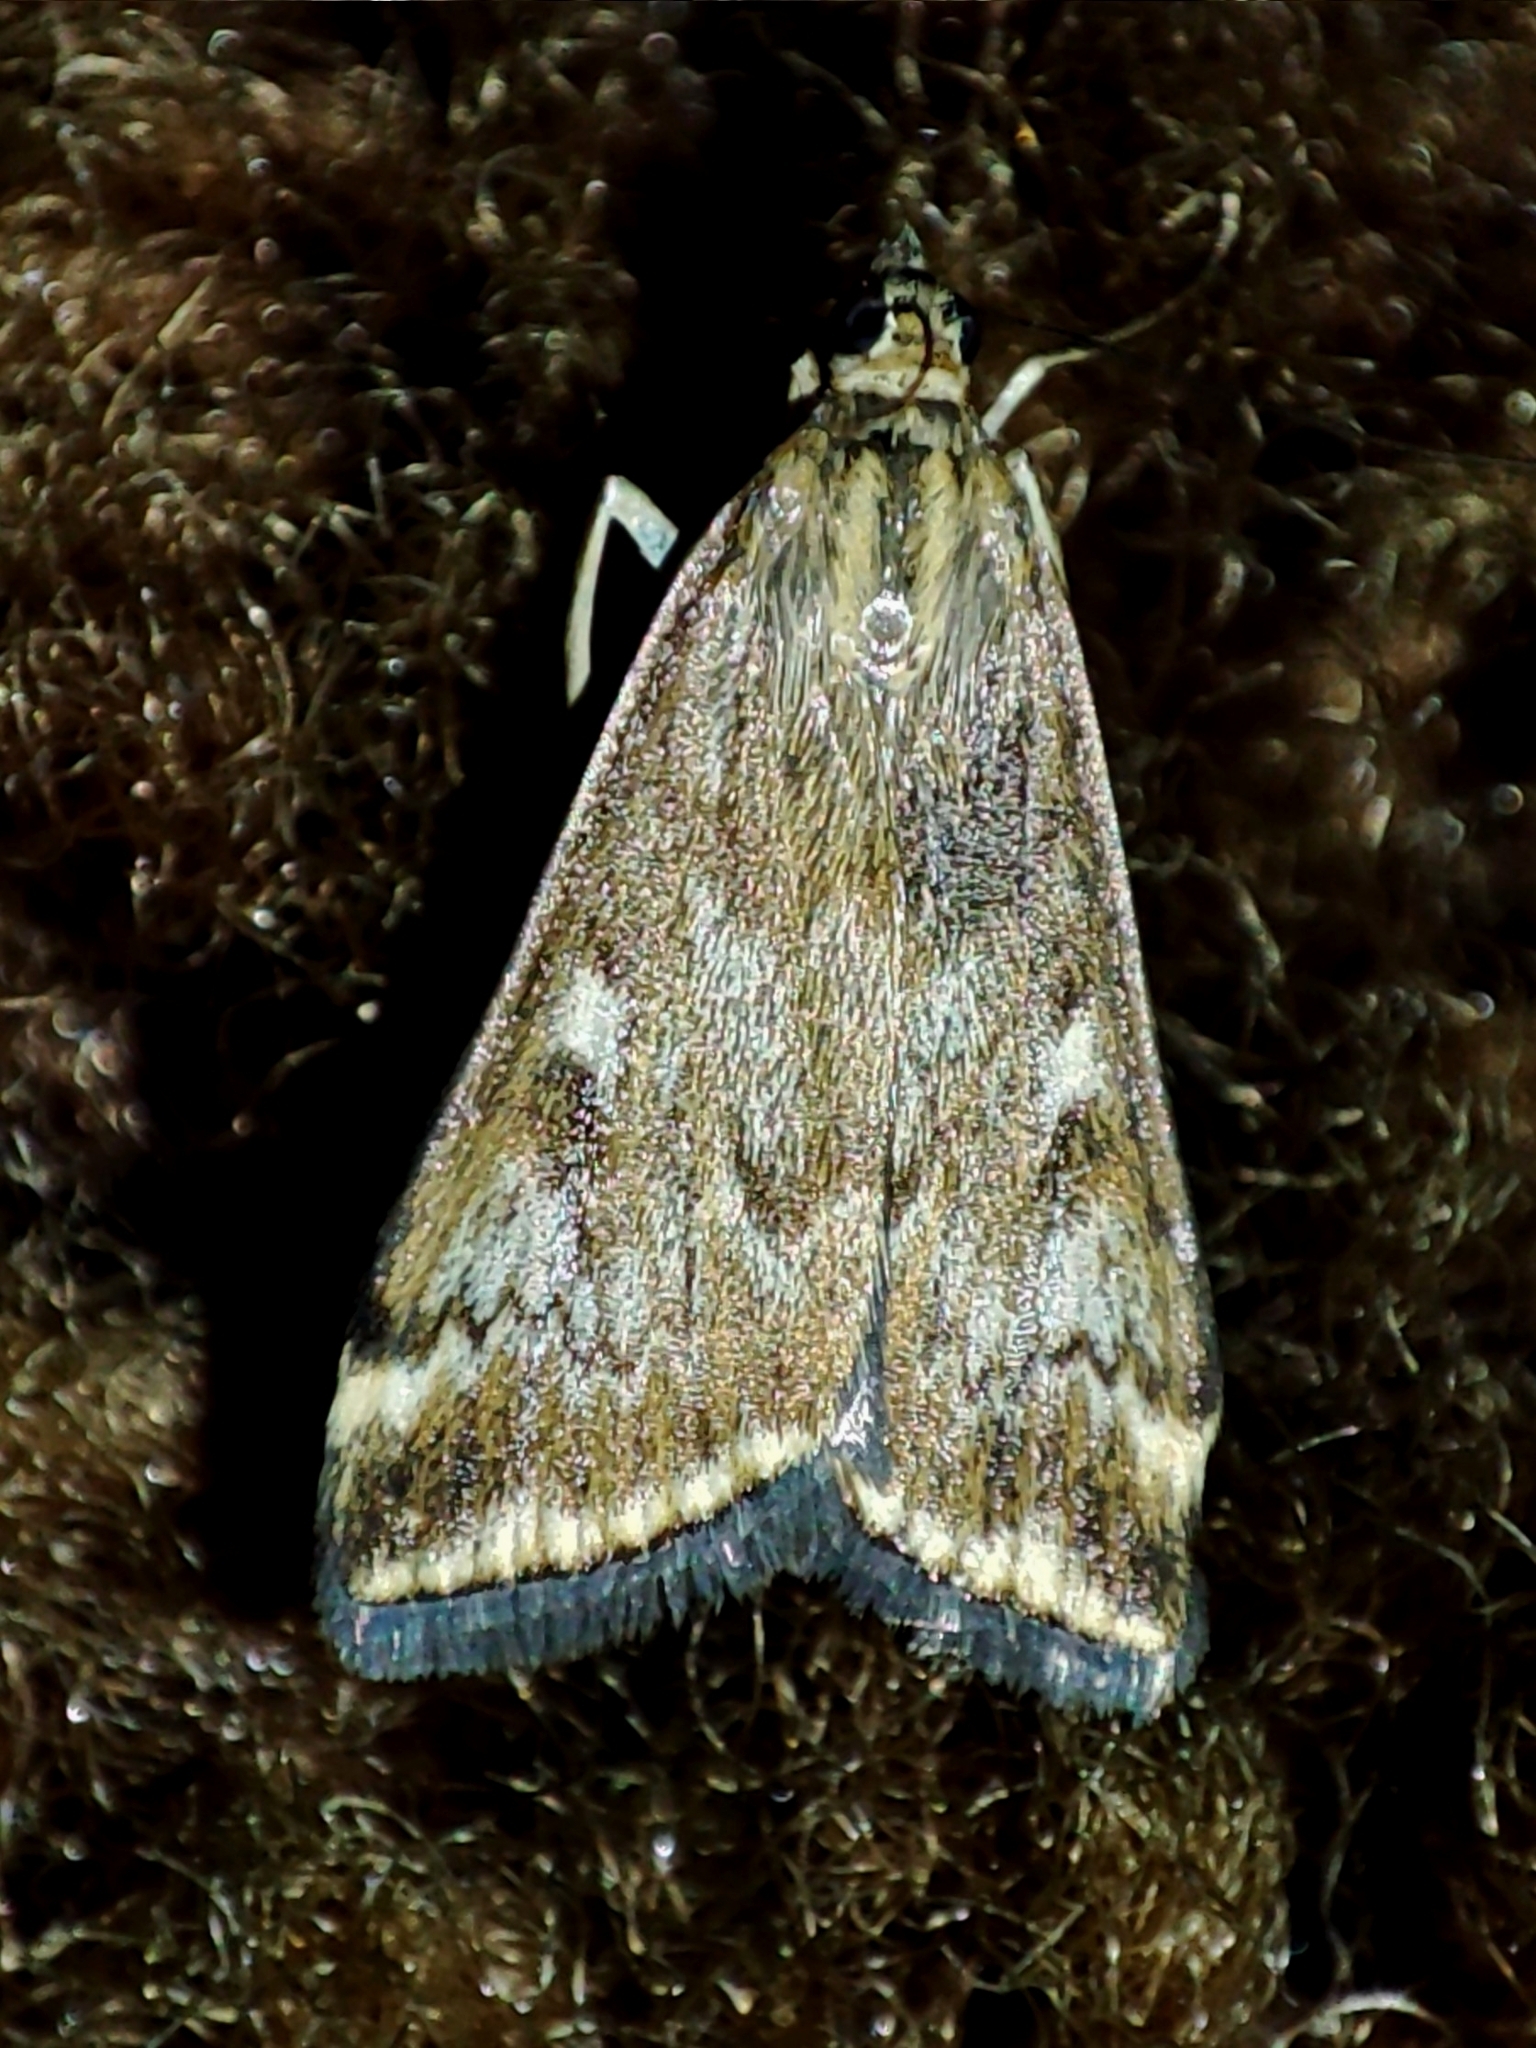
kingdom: Animalia
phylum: Arthropoda
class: Insecta
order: Lepidoptera
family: Crambidae
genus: Loxostege
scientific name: Loxostege sticticalis
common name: Crambid moth
